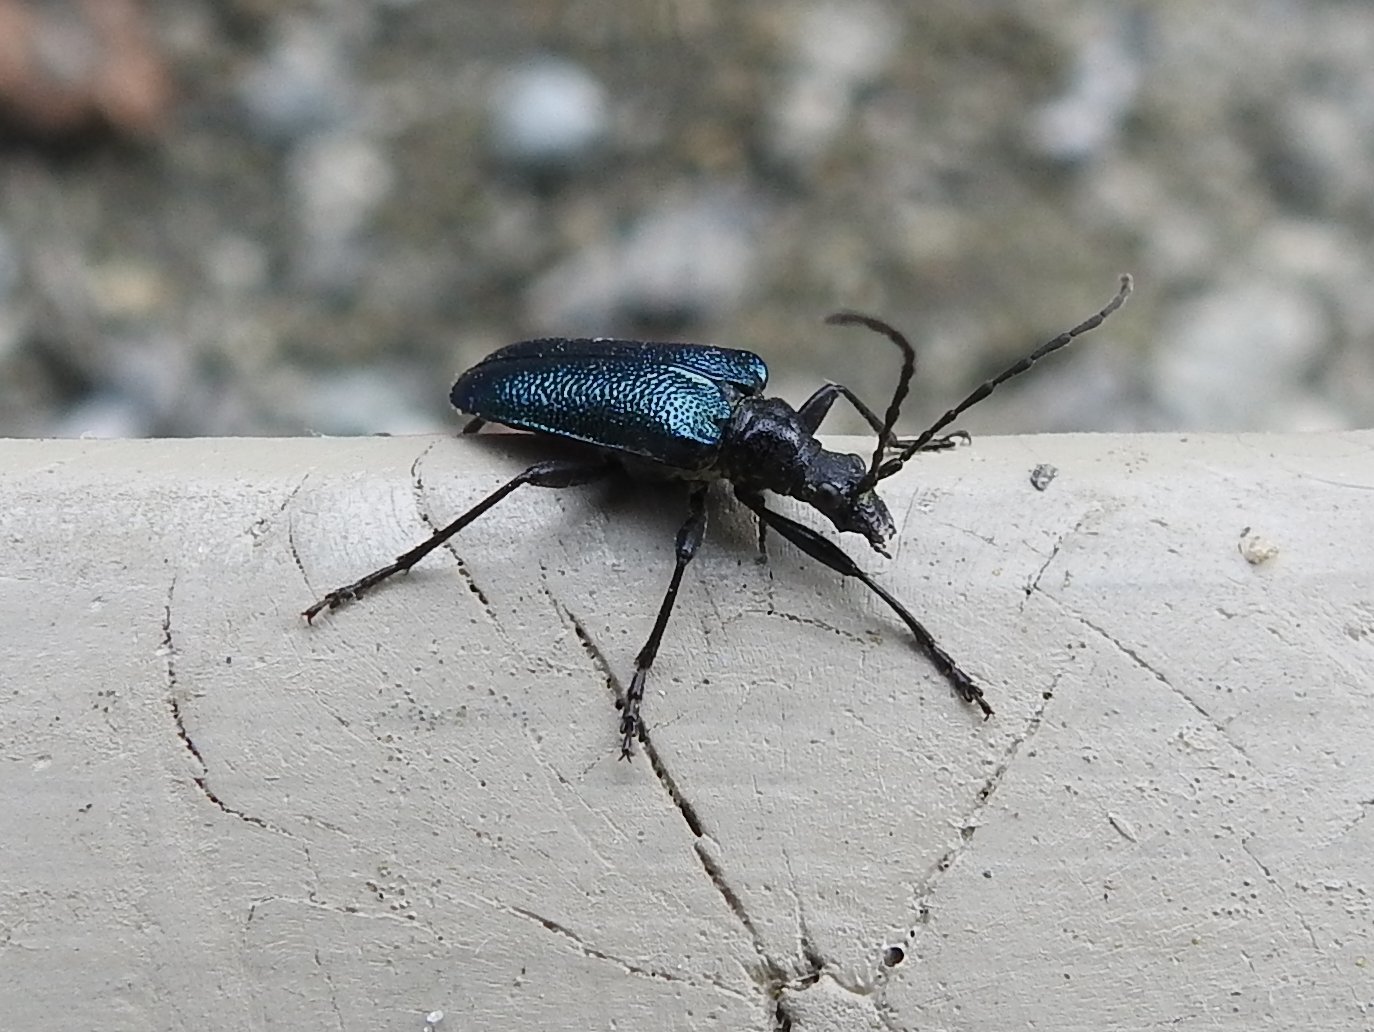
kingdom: Animalia
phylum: Arthropoda
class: Insecta
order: Coleoptera
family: Cerambycidae
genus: Gaurotes
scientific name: Gaurotes virginea
